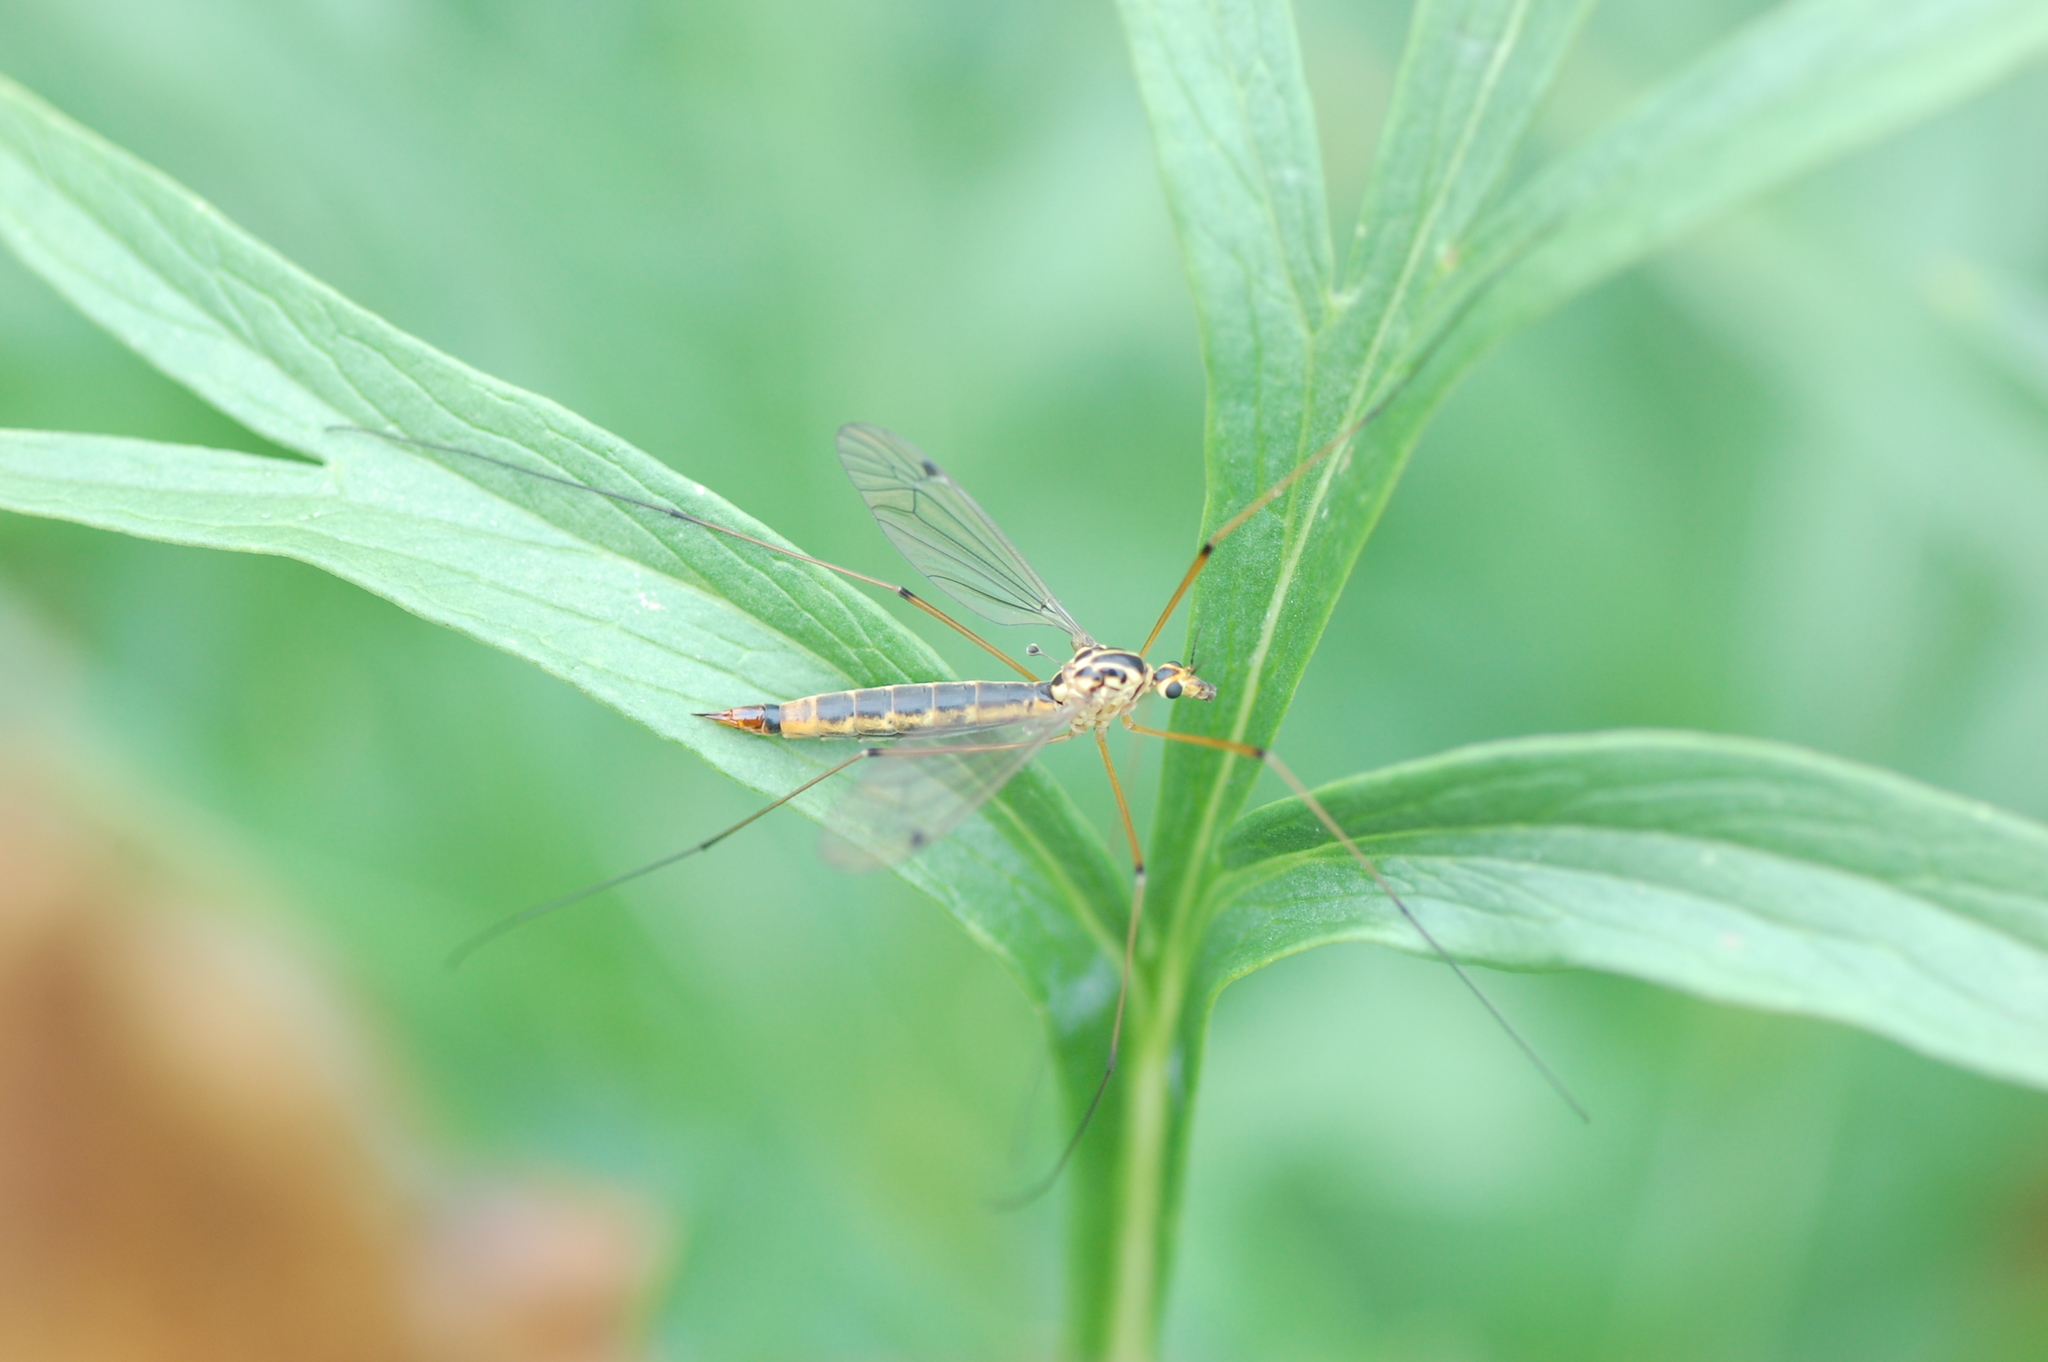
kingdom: Animalia
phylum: Arthropoda
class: Insecta
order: Diptera
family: Tipulidae
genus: Nephrotoma
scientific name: Nephrotoma occipitalis
